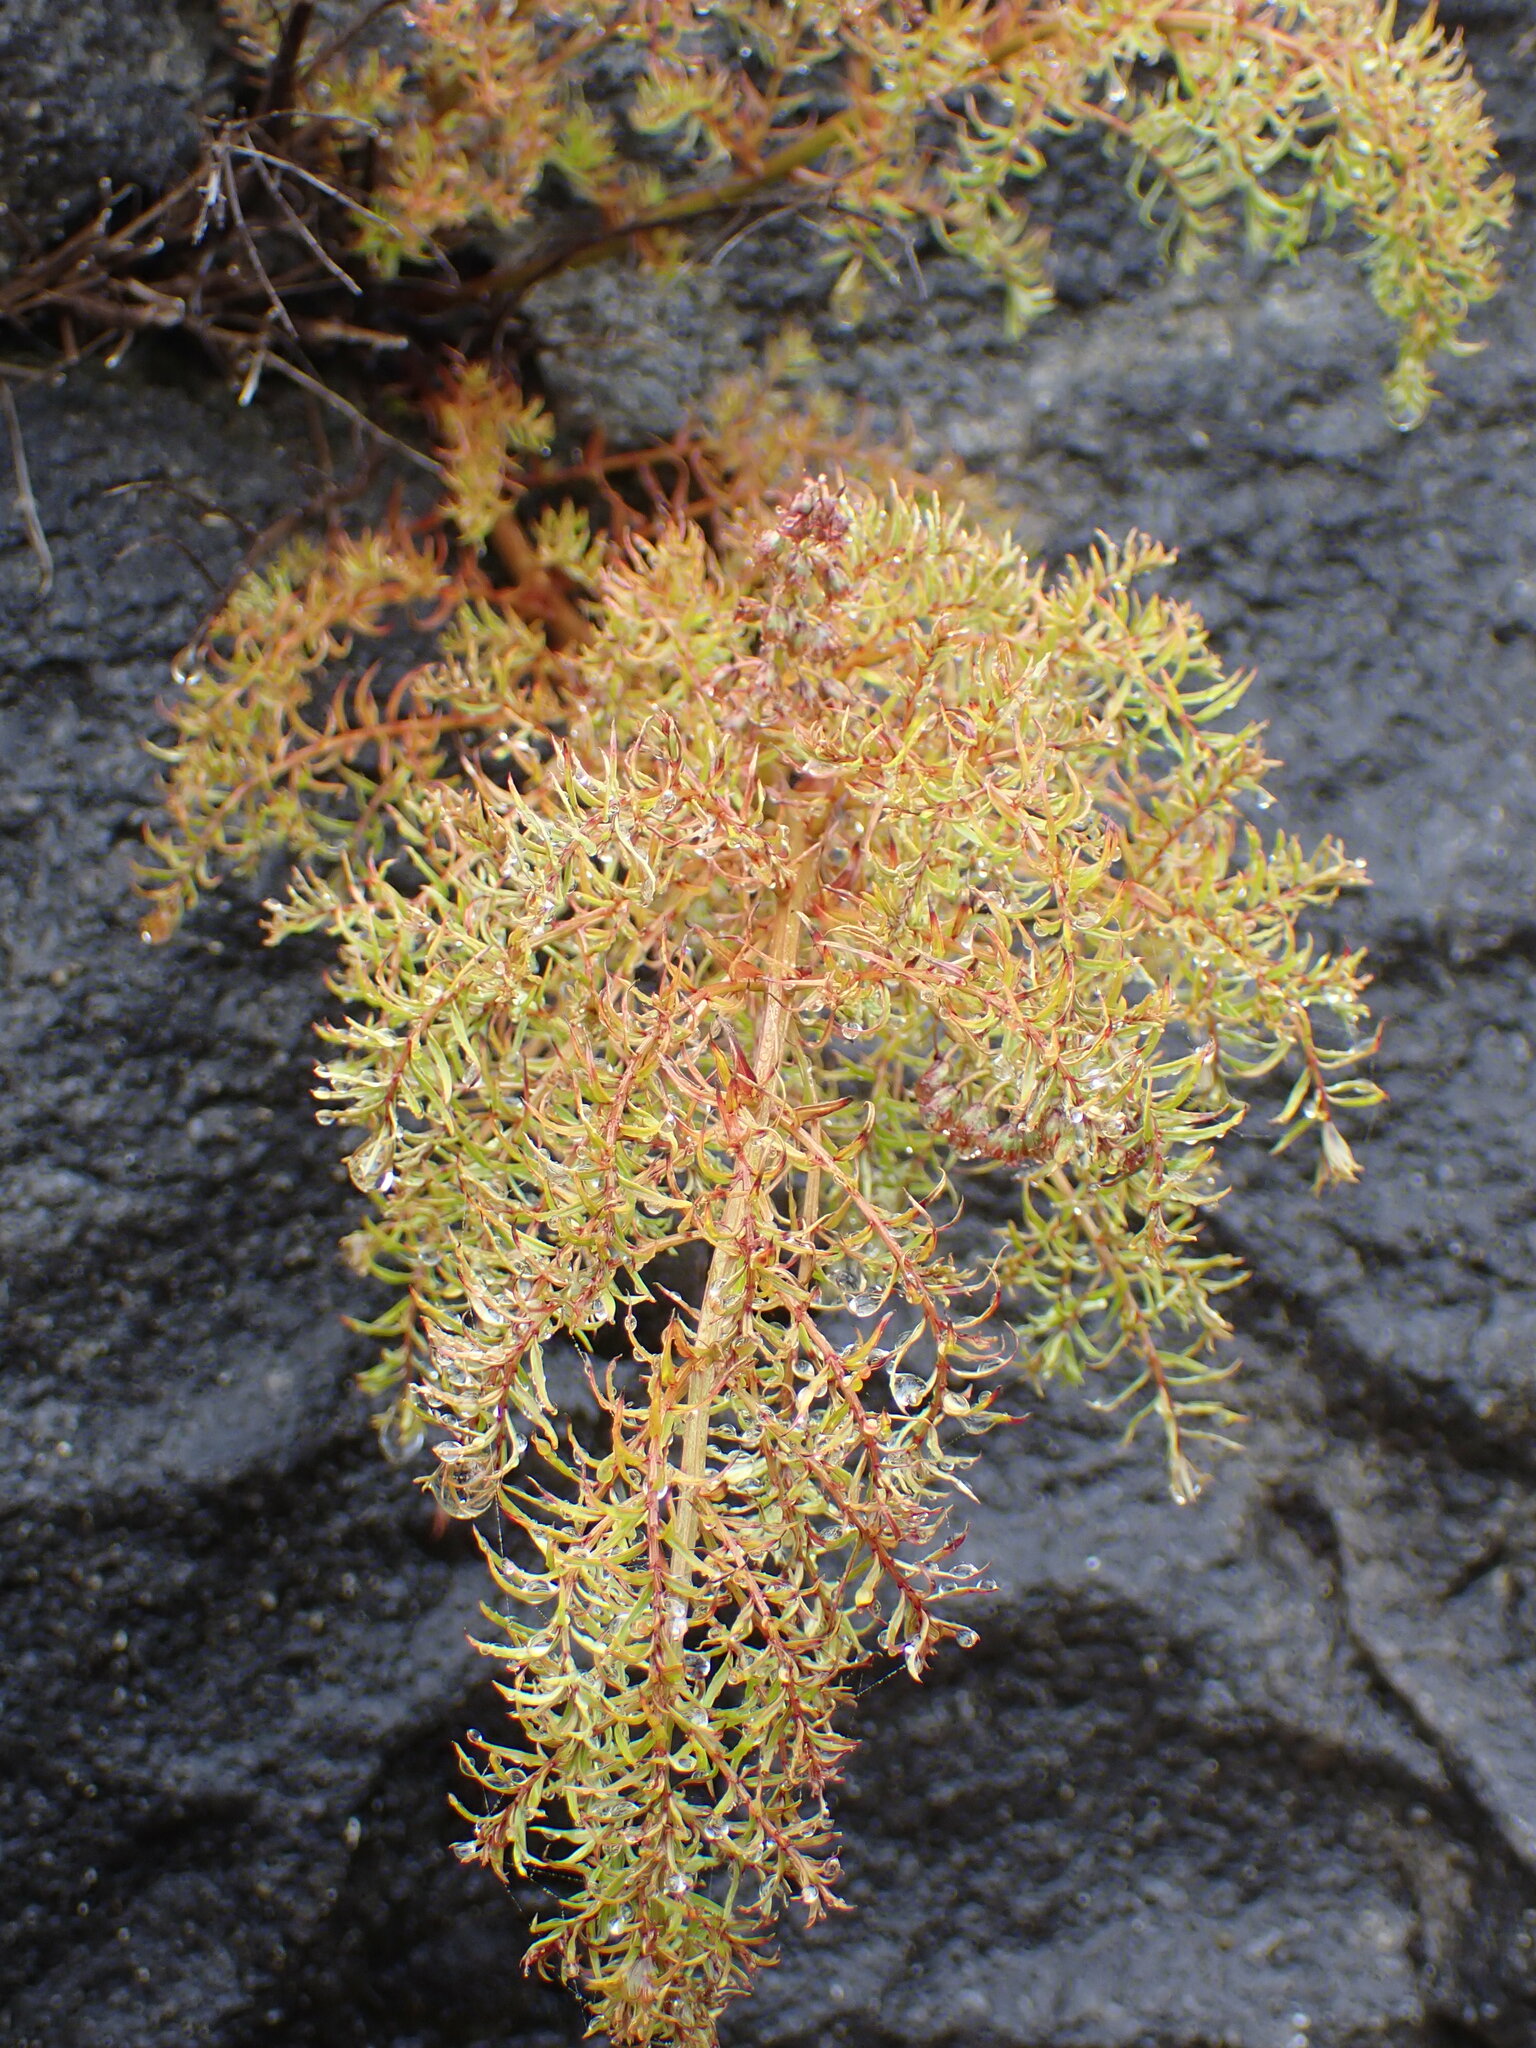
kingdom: Plantae
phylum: Tracheophyta
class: Magnoliopsida
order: Cucurbitales
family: Coriariaceae
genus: Coriaria
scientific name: Coriaria angustissima
